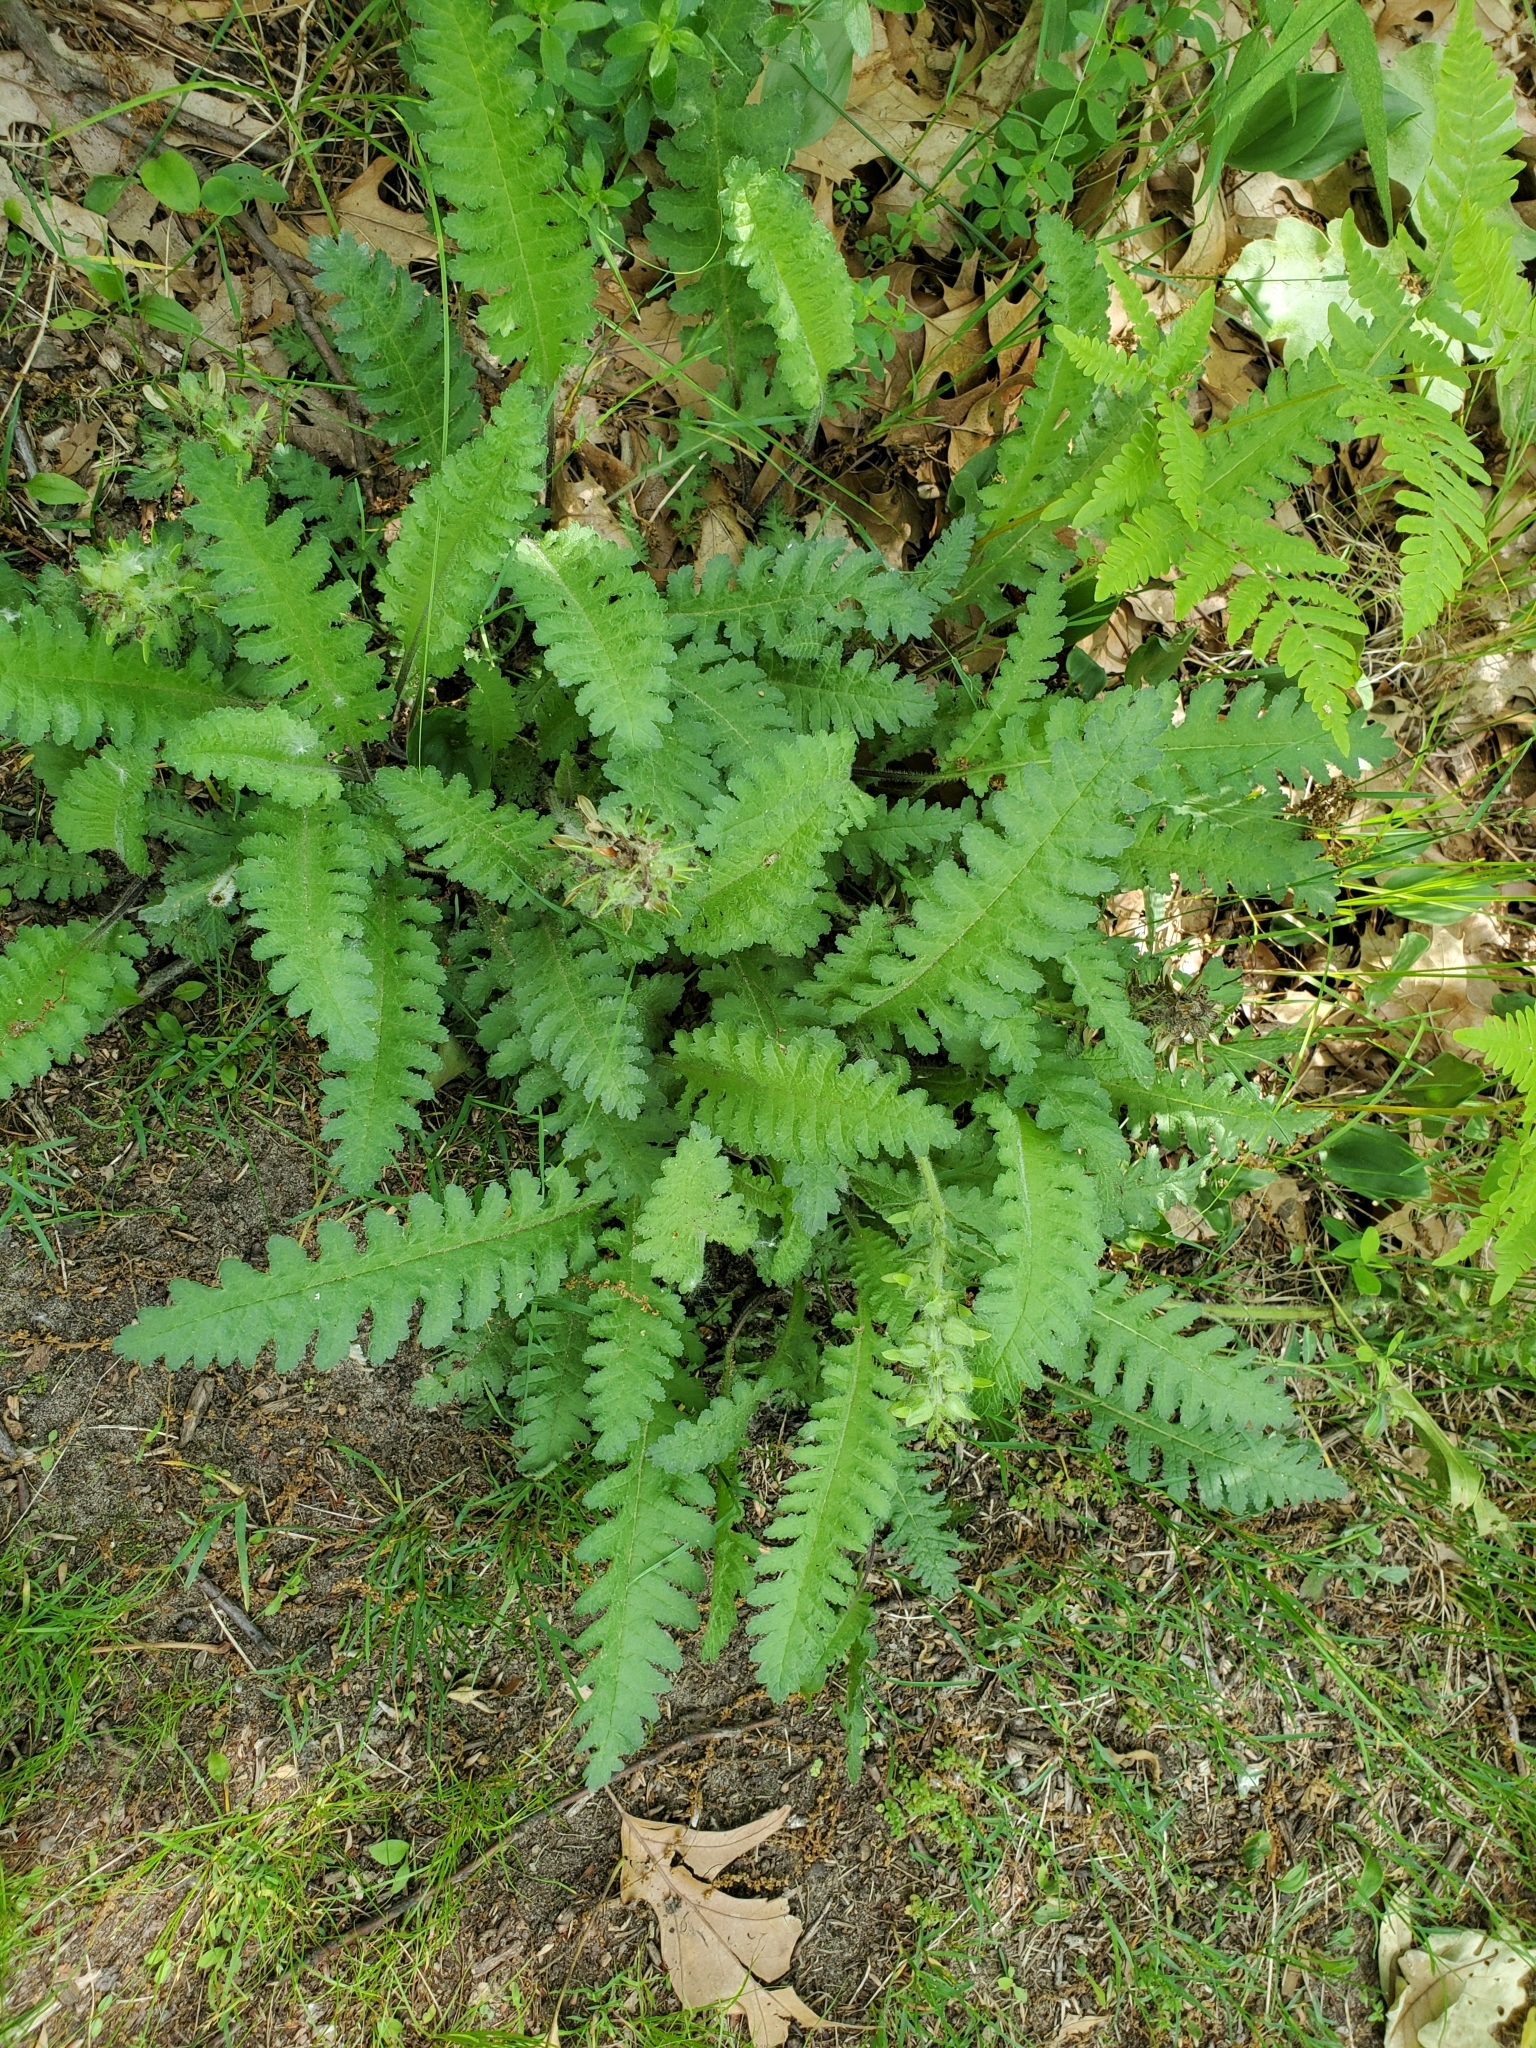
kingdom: Plantae
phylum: Tracheophyta
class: Magnoliopsida
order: Lamiales
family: Orobanchaceae
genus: Pedicularis
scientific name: Pedicularis canadensis
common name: Early lousewort
